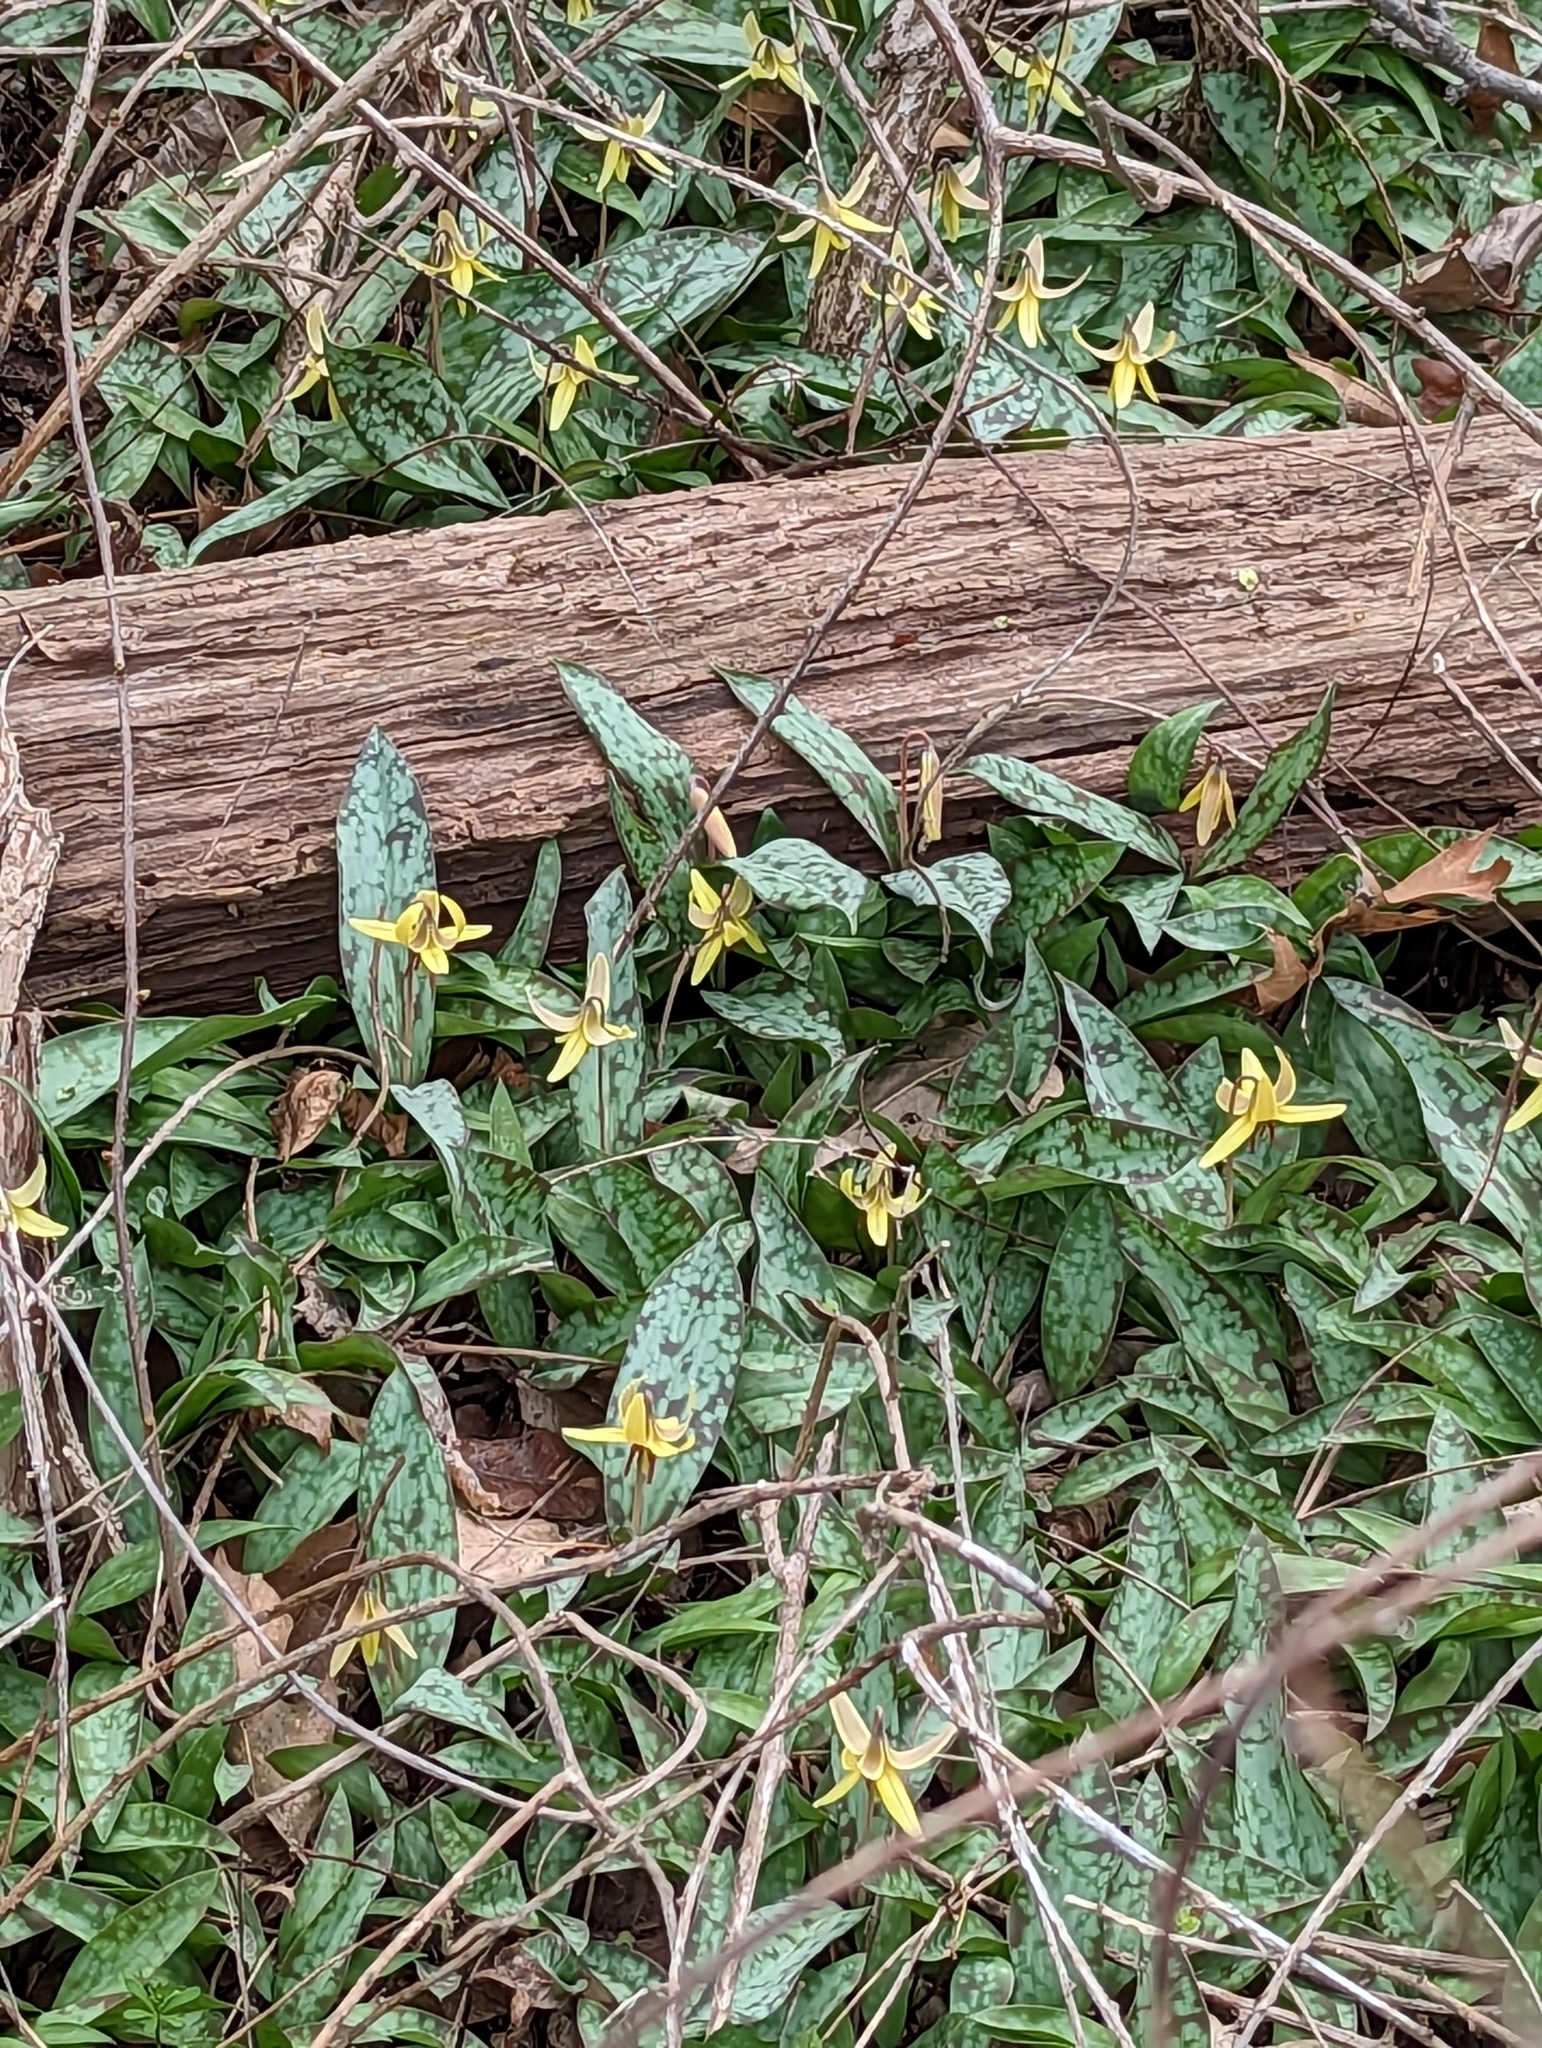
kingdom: Plantae
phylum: Tracheophyta
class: Liliopsida
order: Liliales
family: Liliaceae
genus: Erythronium
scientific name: Erythronium americanum
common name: Yellow adder's-tongue
